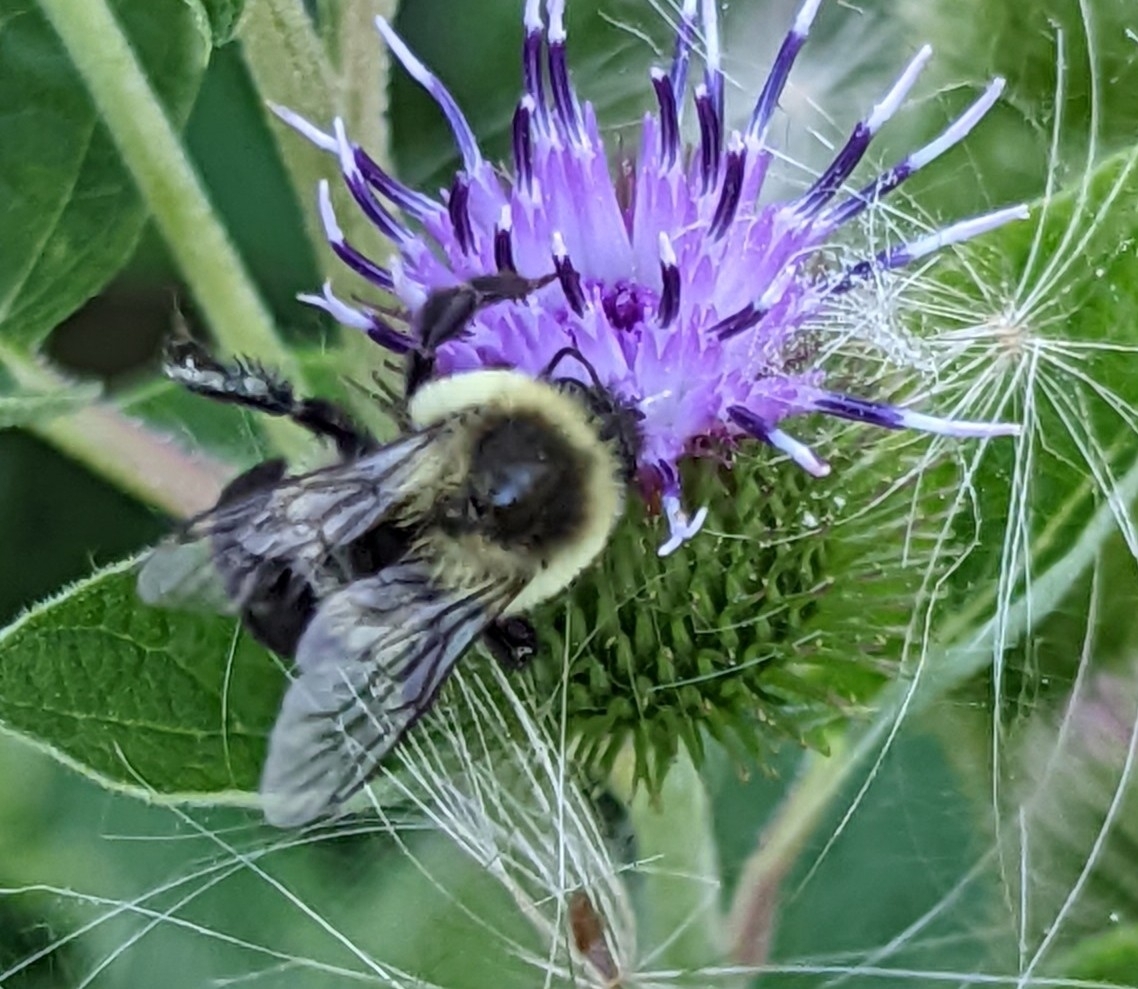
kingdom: Animalia
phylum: Arthropoda
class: Insecta
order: Hymenoptera
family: Apidae
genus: Bombus
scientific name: Bombus impatiens
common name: Common eastern bumble bee
